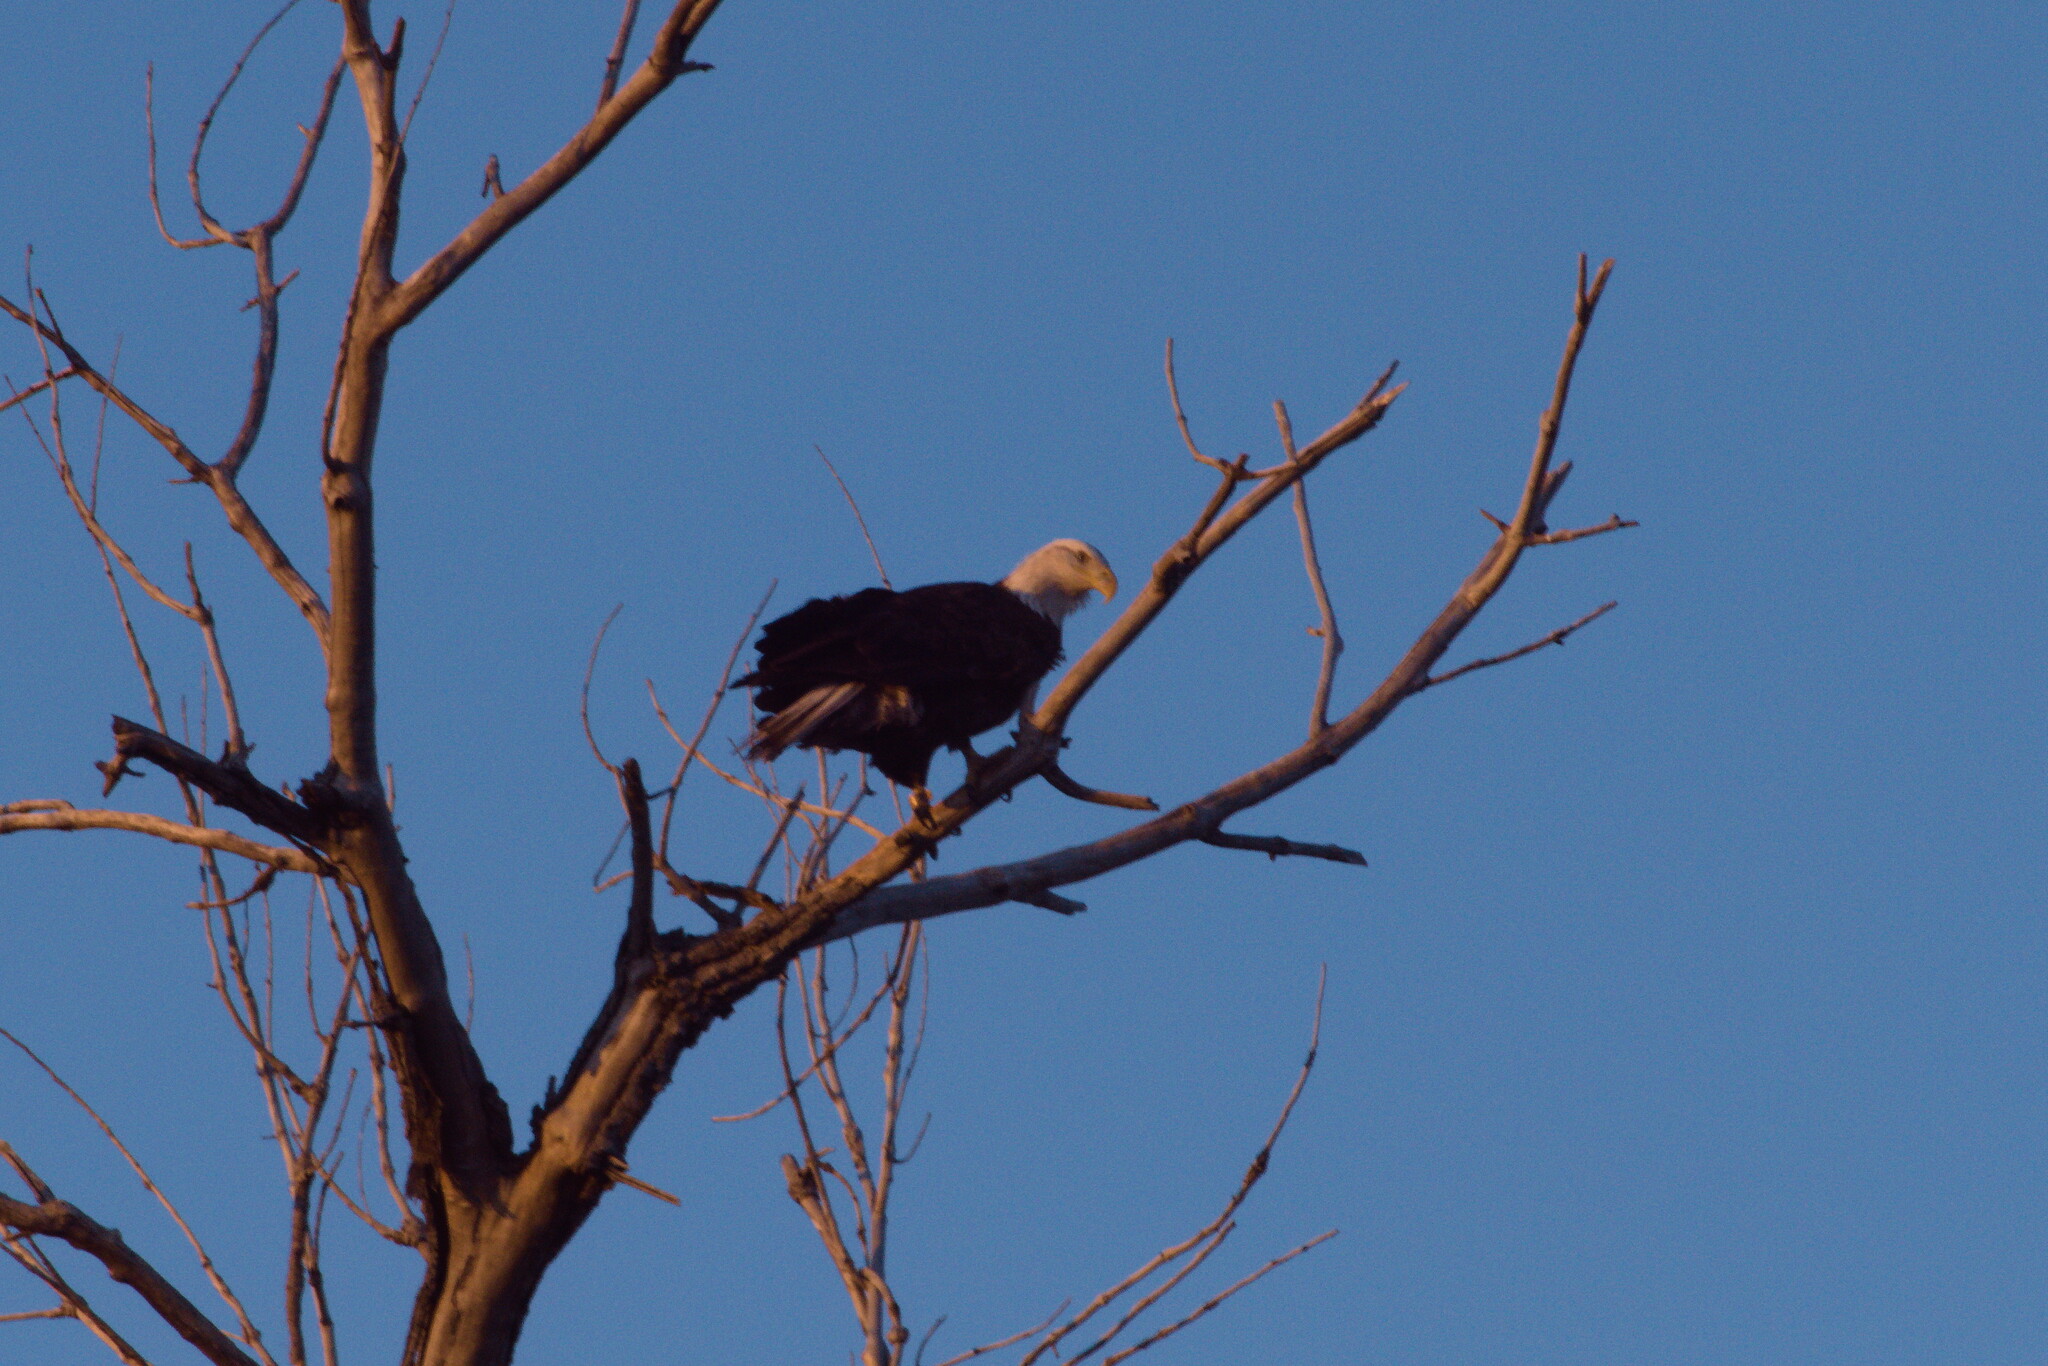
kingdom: Animalia
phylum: Chordata
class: Aves
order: Accipitriformes
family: Accipitridae
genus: Haliaeetus
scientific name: Haliaeetus leucocephalus
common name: Bald eagle
